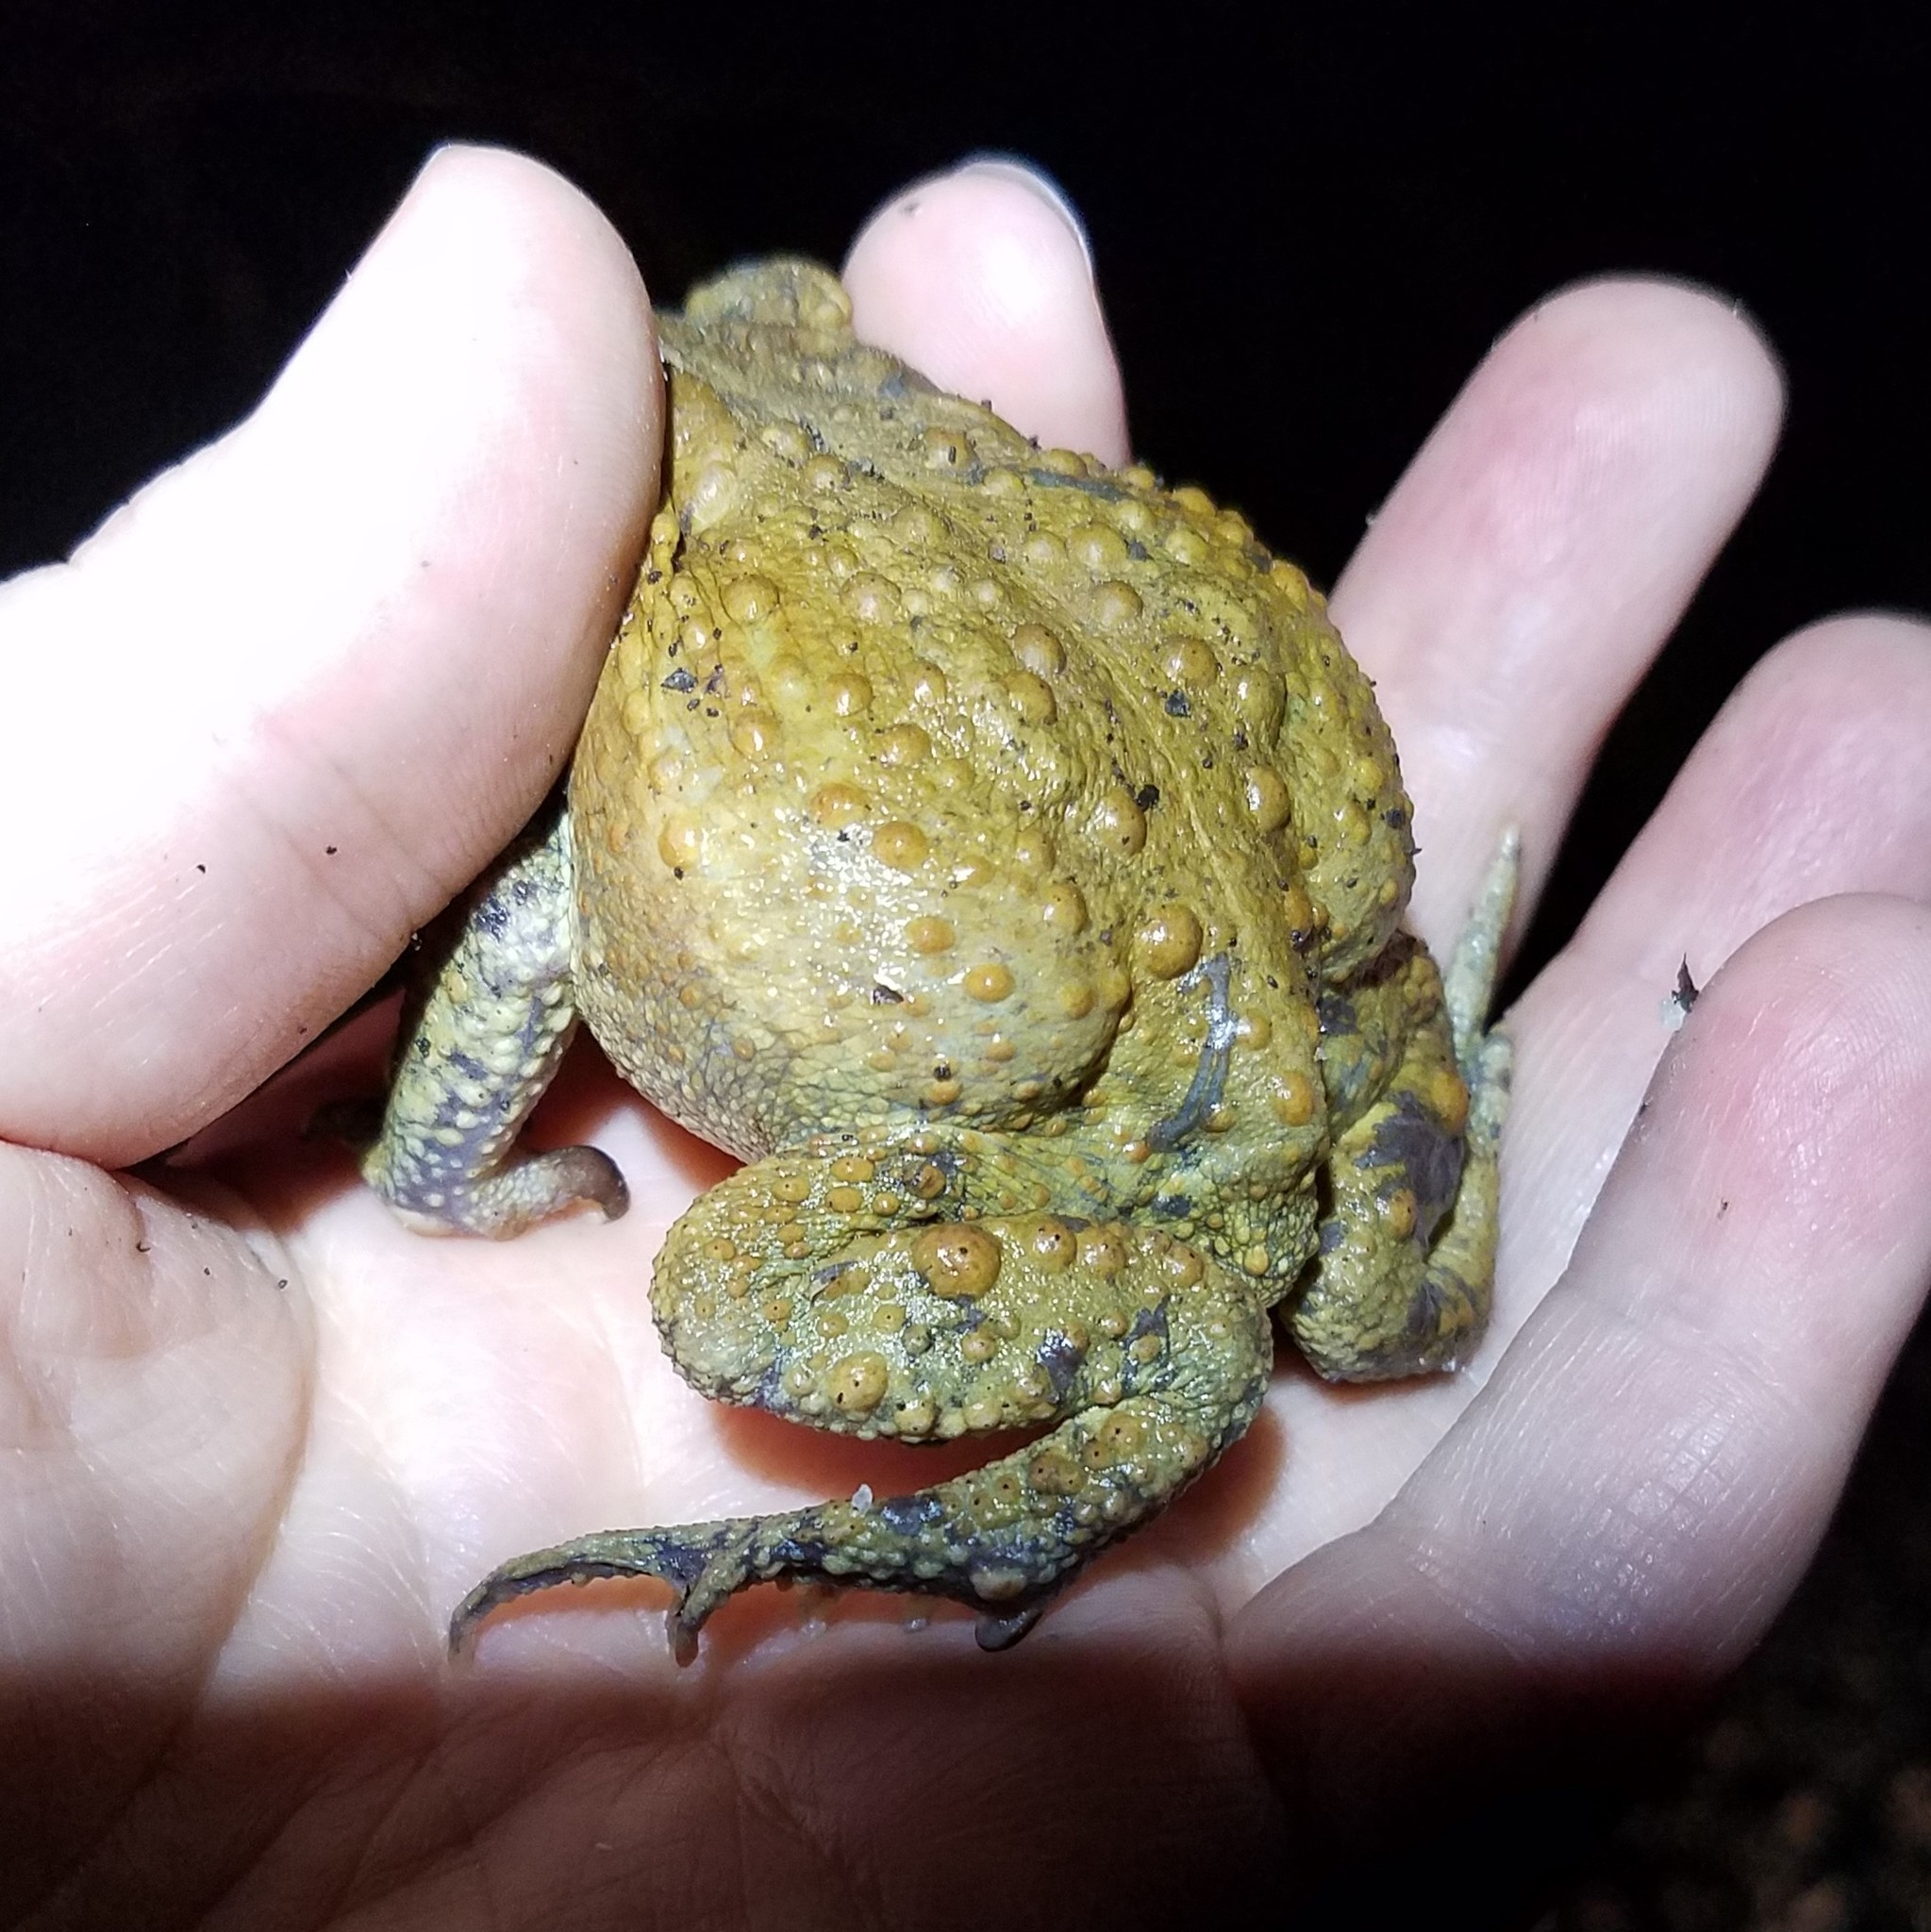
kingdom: Animalia
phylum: Chordata
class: Amphibia
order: Anura
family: Bufonidae
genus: Anaxyrus
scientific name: Anaxyrus americanus
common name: American toad
